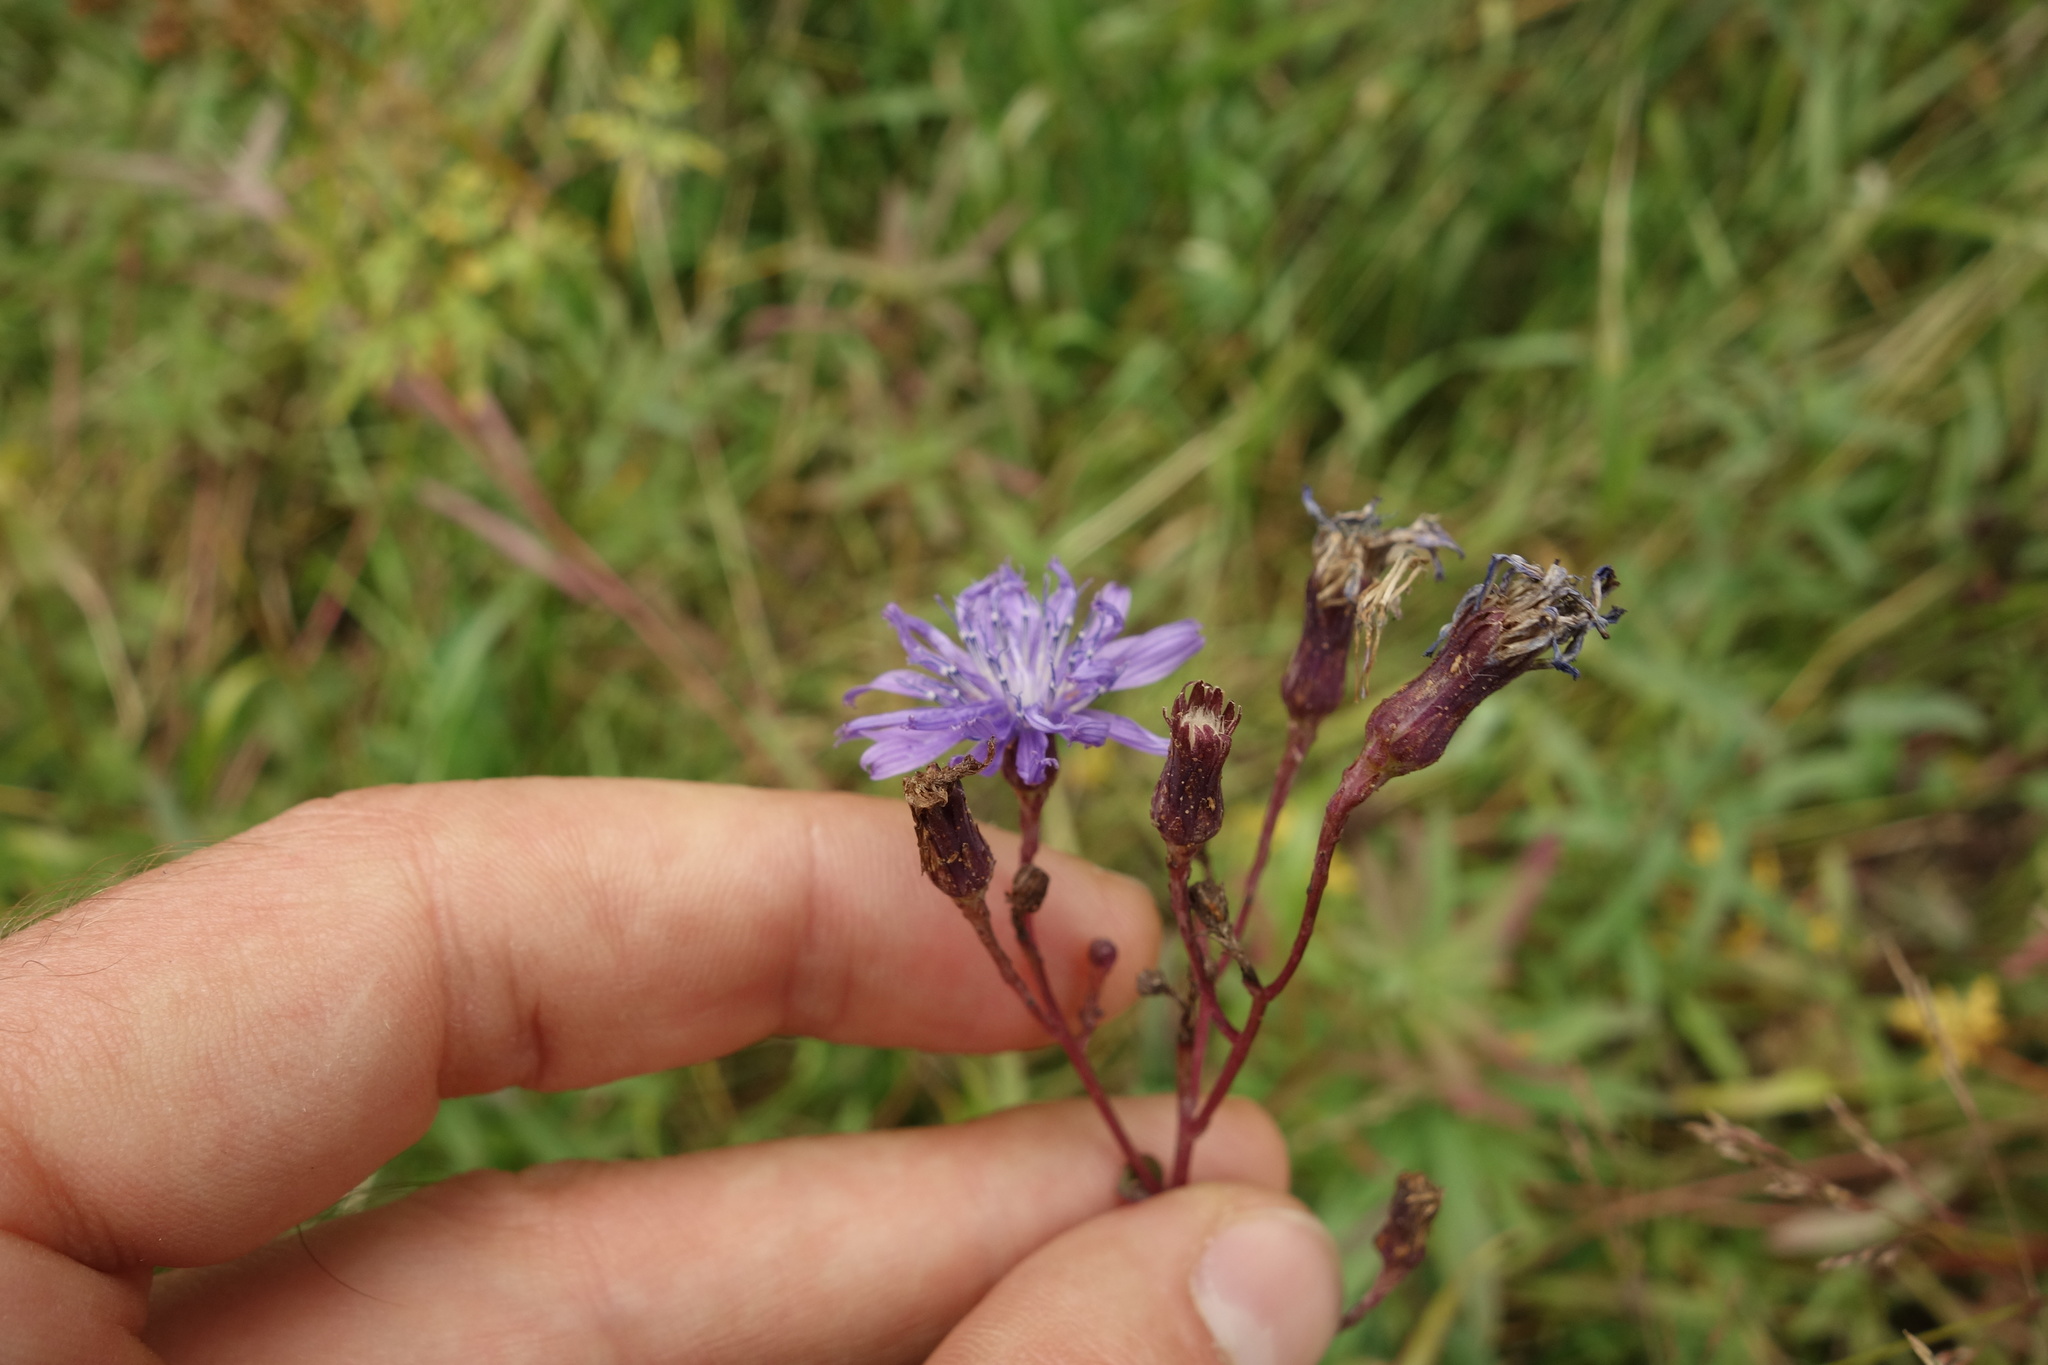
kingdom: Plantae
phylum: Tracheophyta
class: Magnoliopsida
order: Asterales
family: Asteraceae
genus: Lactuca
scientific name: Lactuca sibirica
